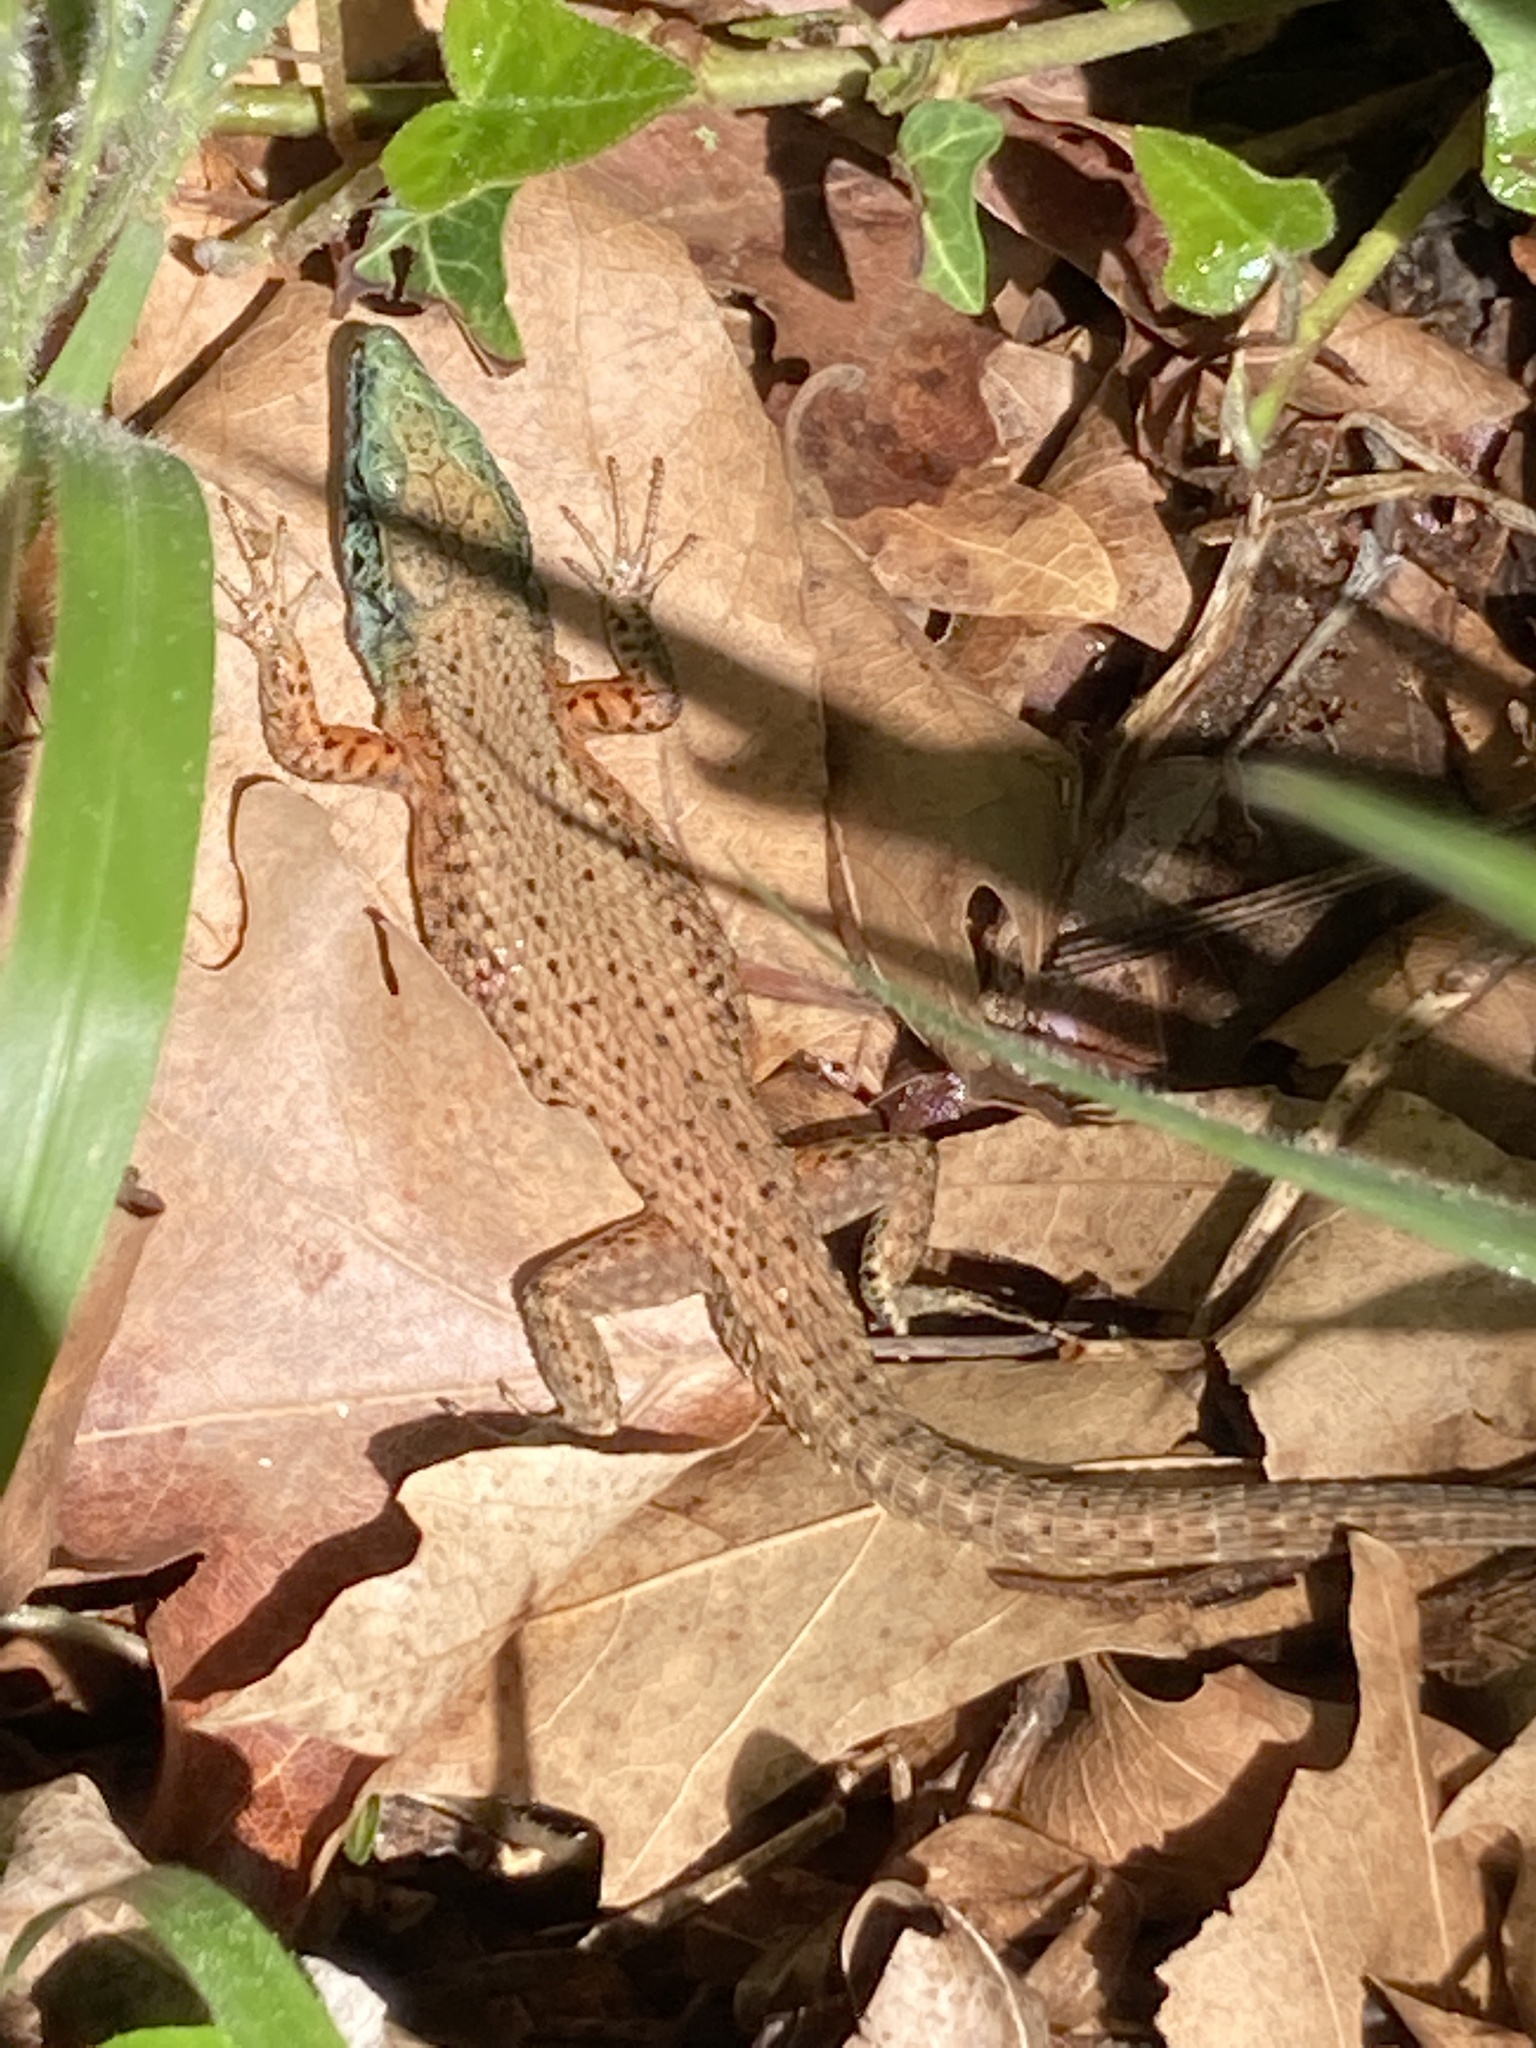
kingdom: Animalia
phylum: Chordata
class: Squamata
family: Lacertidae
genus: Algyroides
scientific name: Algyroides nigropunctatus
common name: Blue-throated keeled lizard
